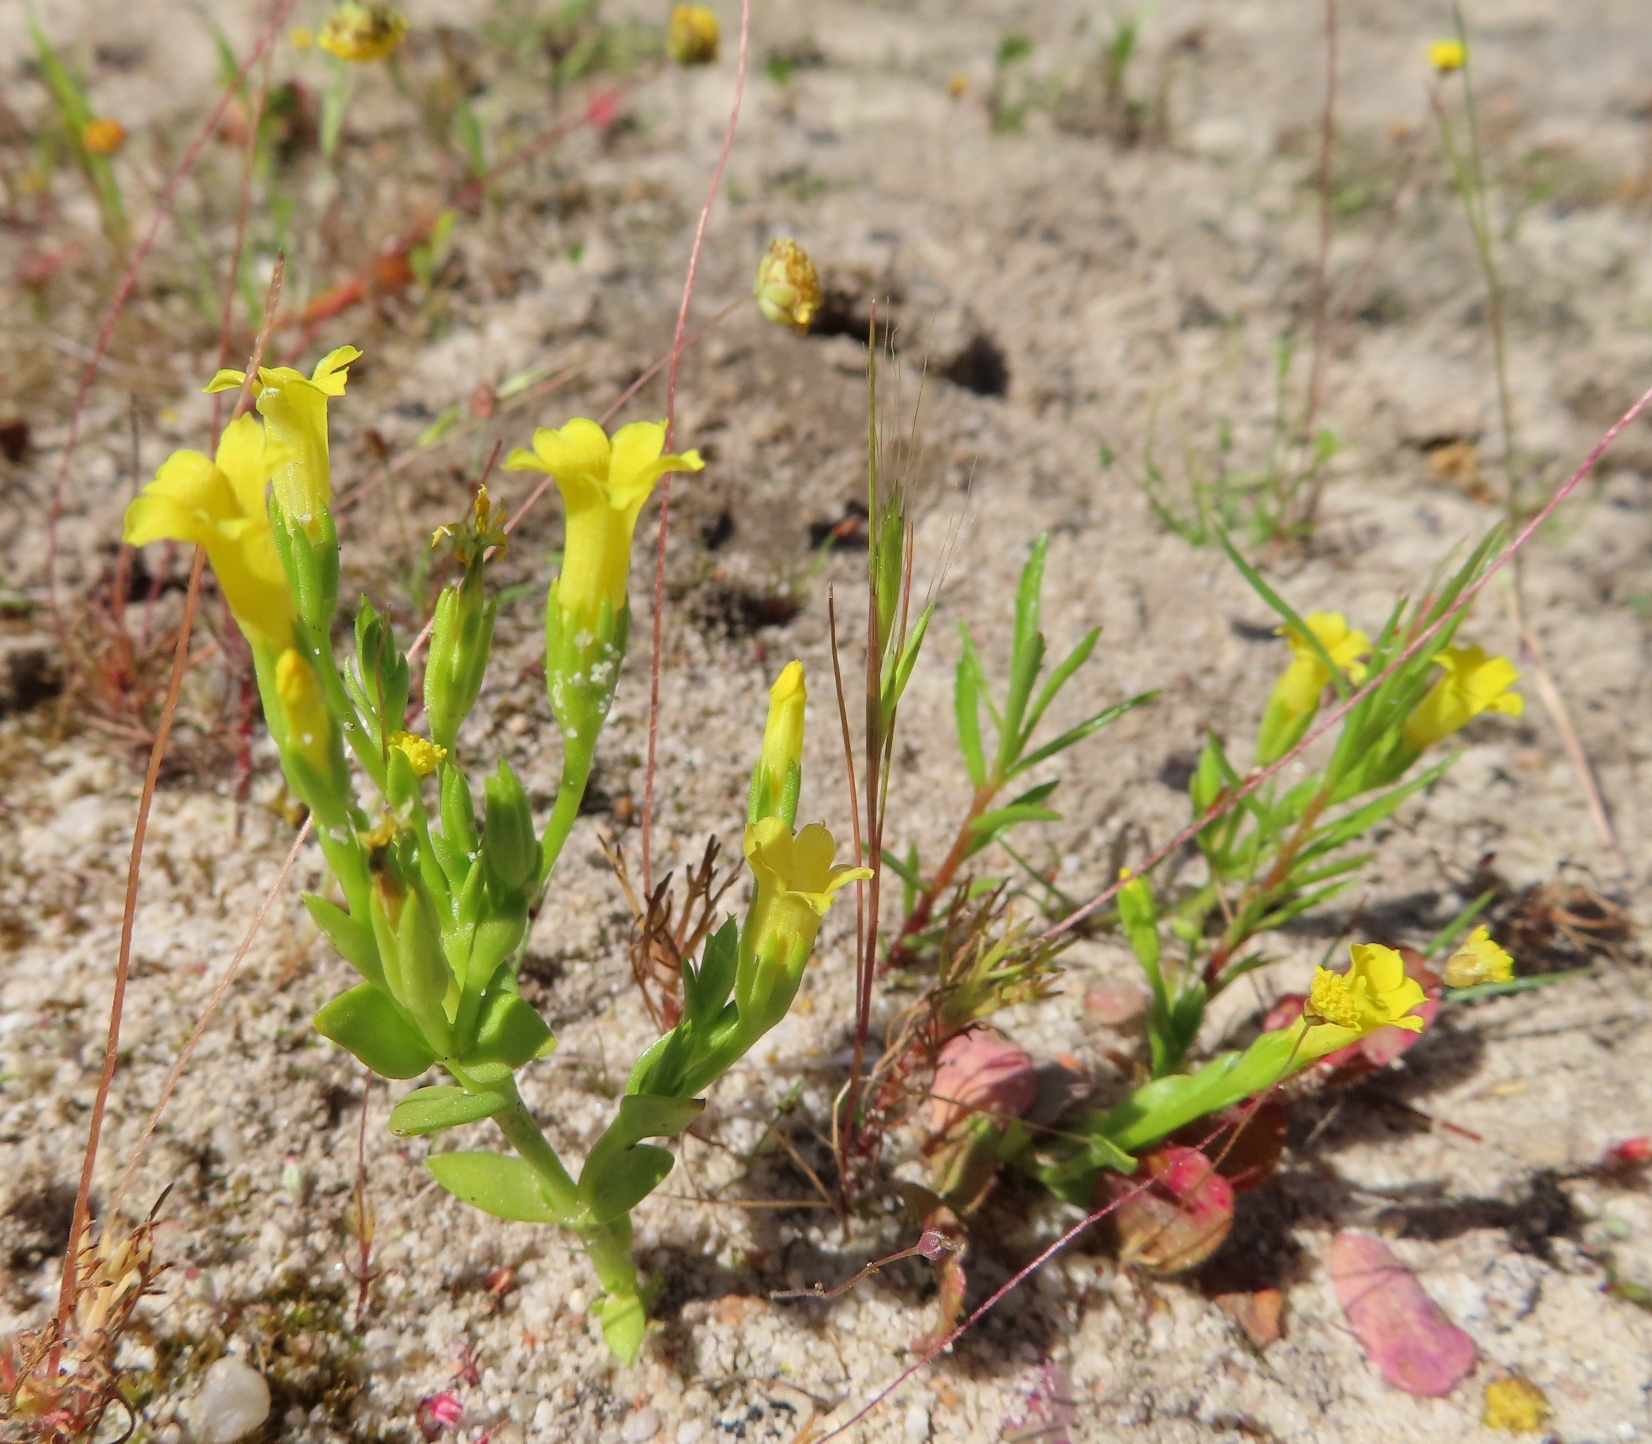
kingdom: Plantae
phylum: Tracheophyta
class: Magnoliopsida
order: Gentianales
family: Gentianaceae
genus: Sebaea
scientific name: Sebaea pusilla
